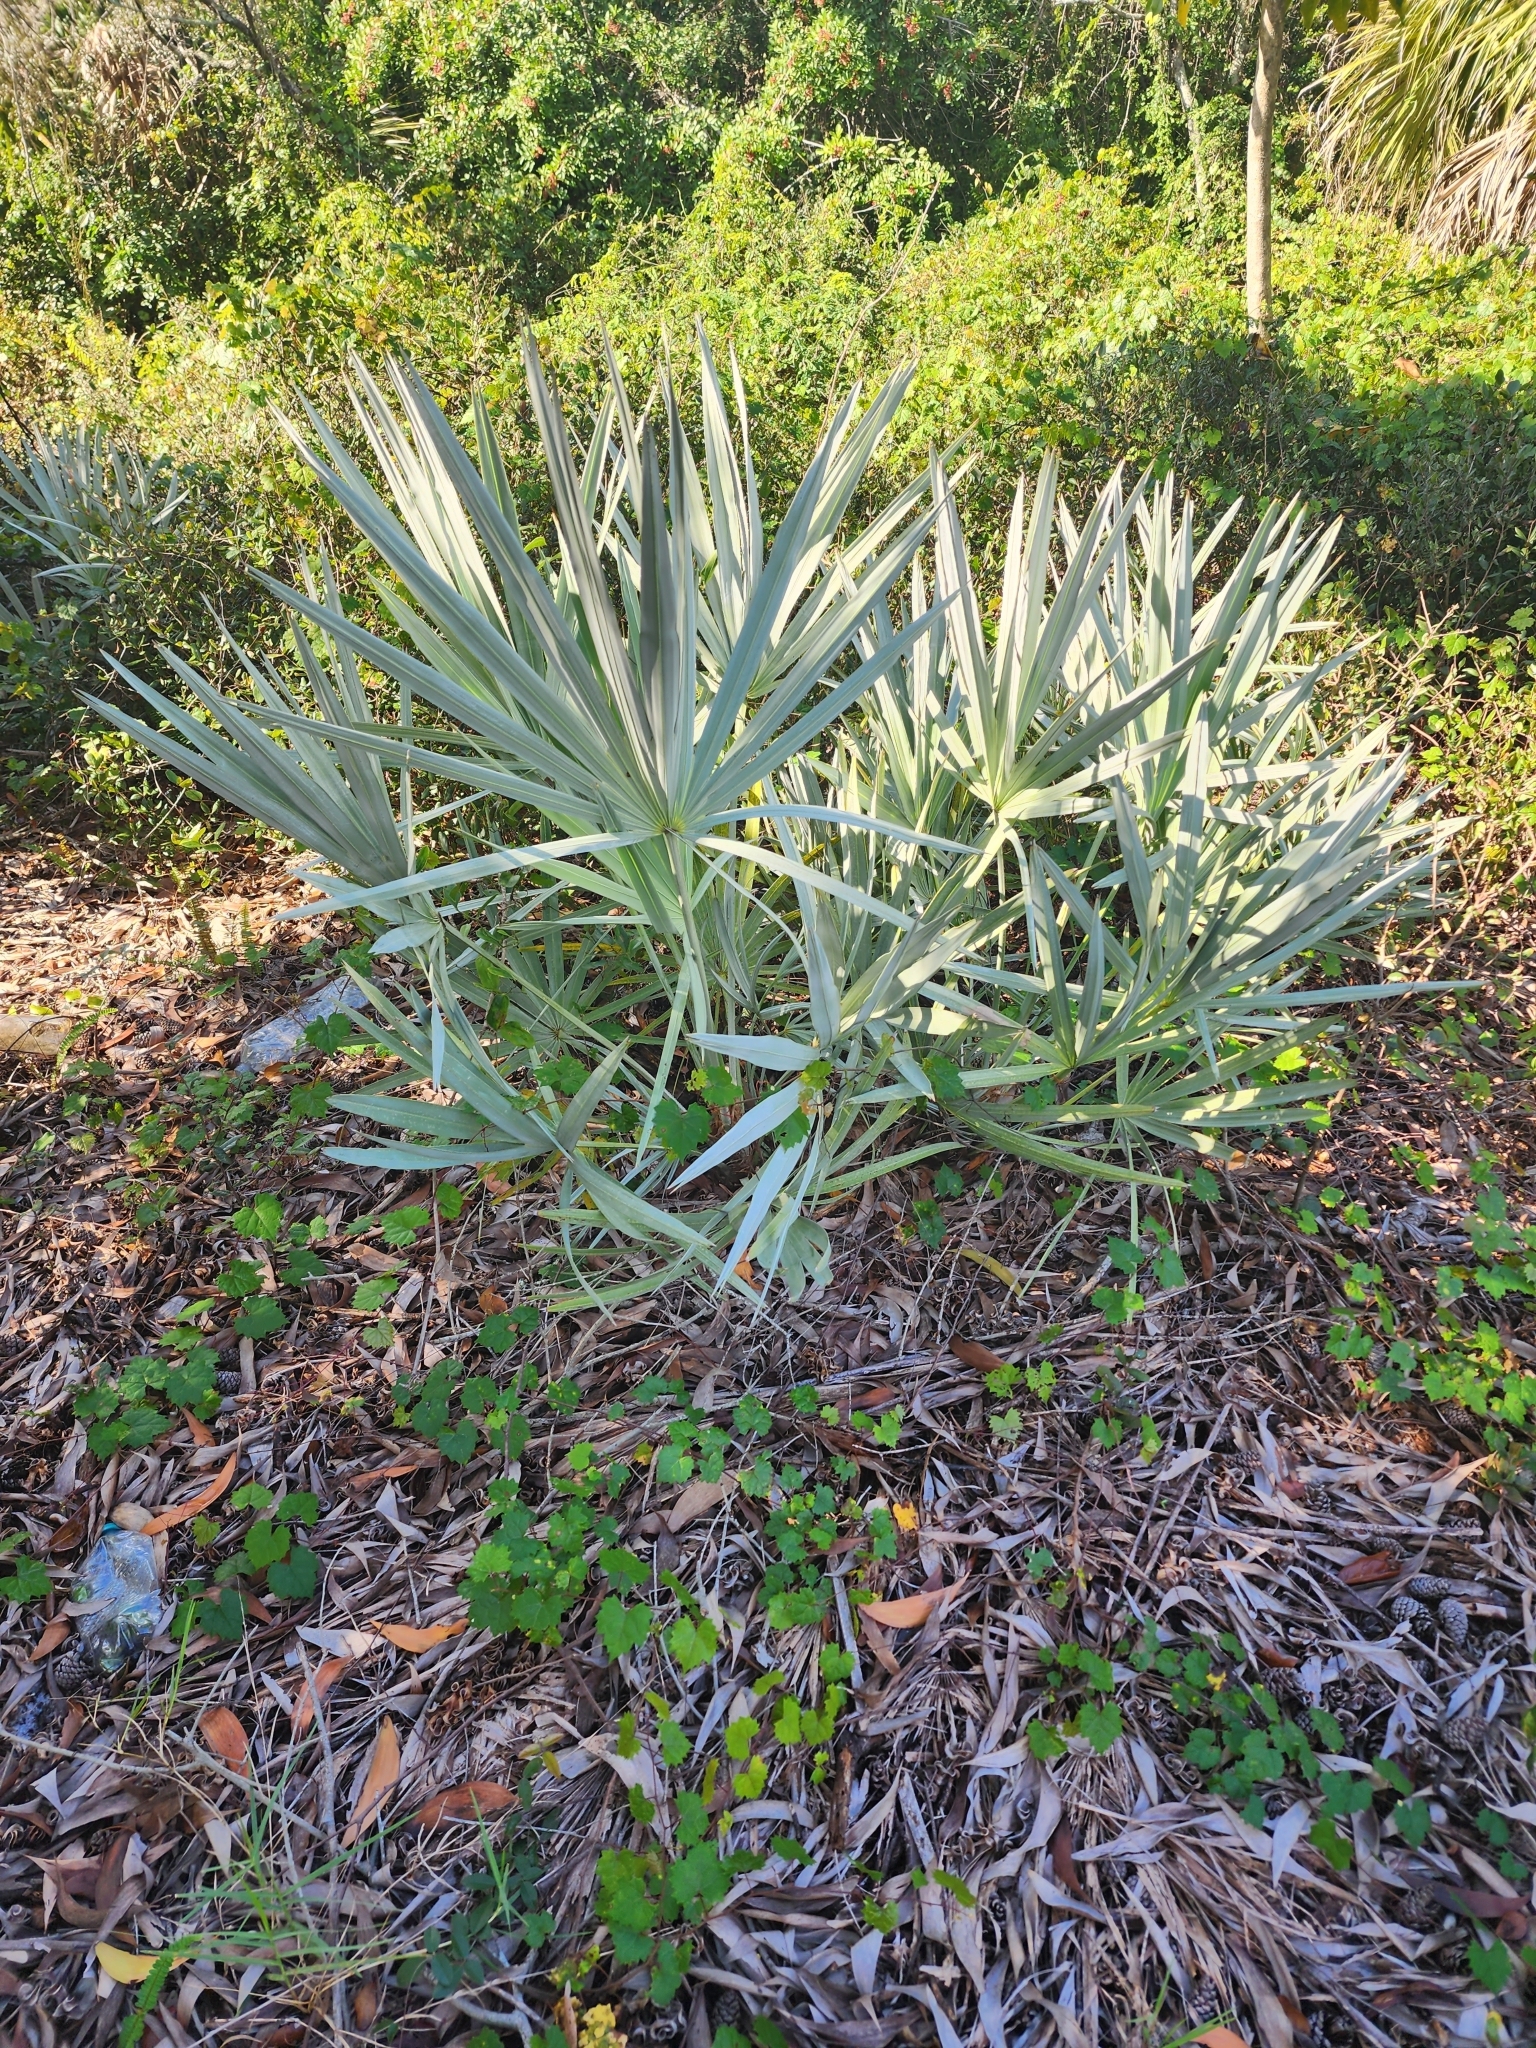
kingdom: Plantae
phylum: Tracheophyta
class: Liliopsida
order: Arecales
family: Arecaceae
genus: Serenoa
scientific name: Serenoa repens
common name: Saw-palmetto
